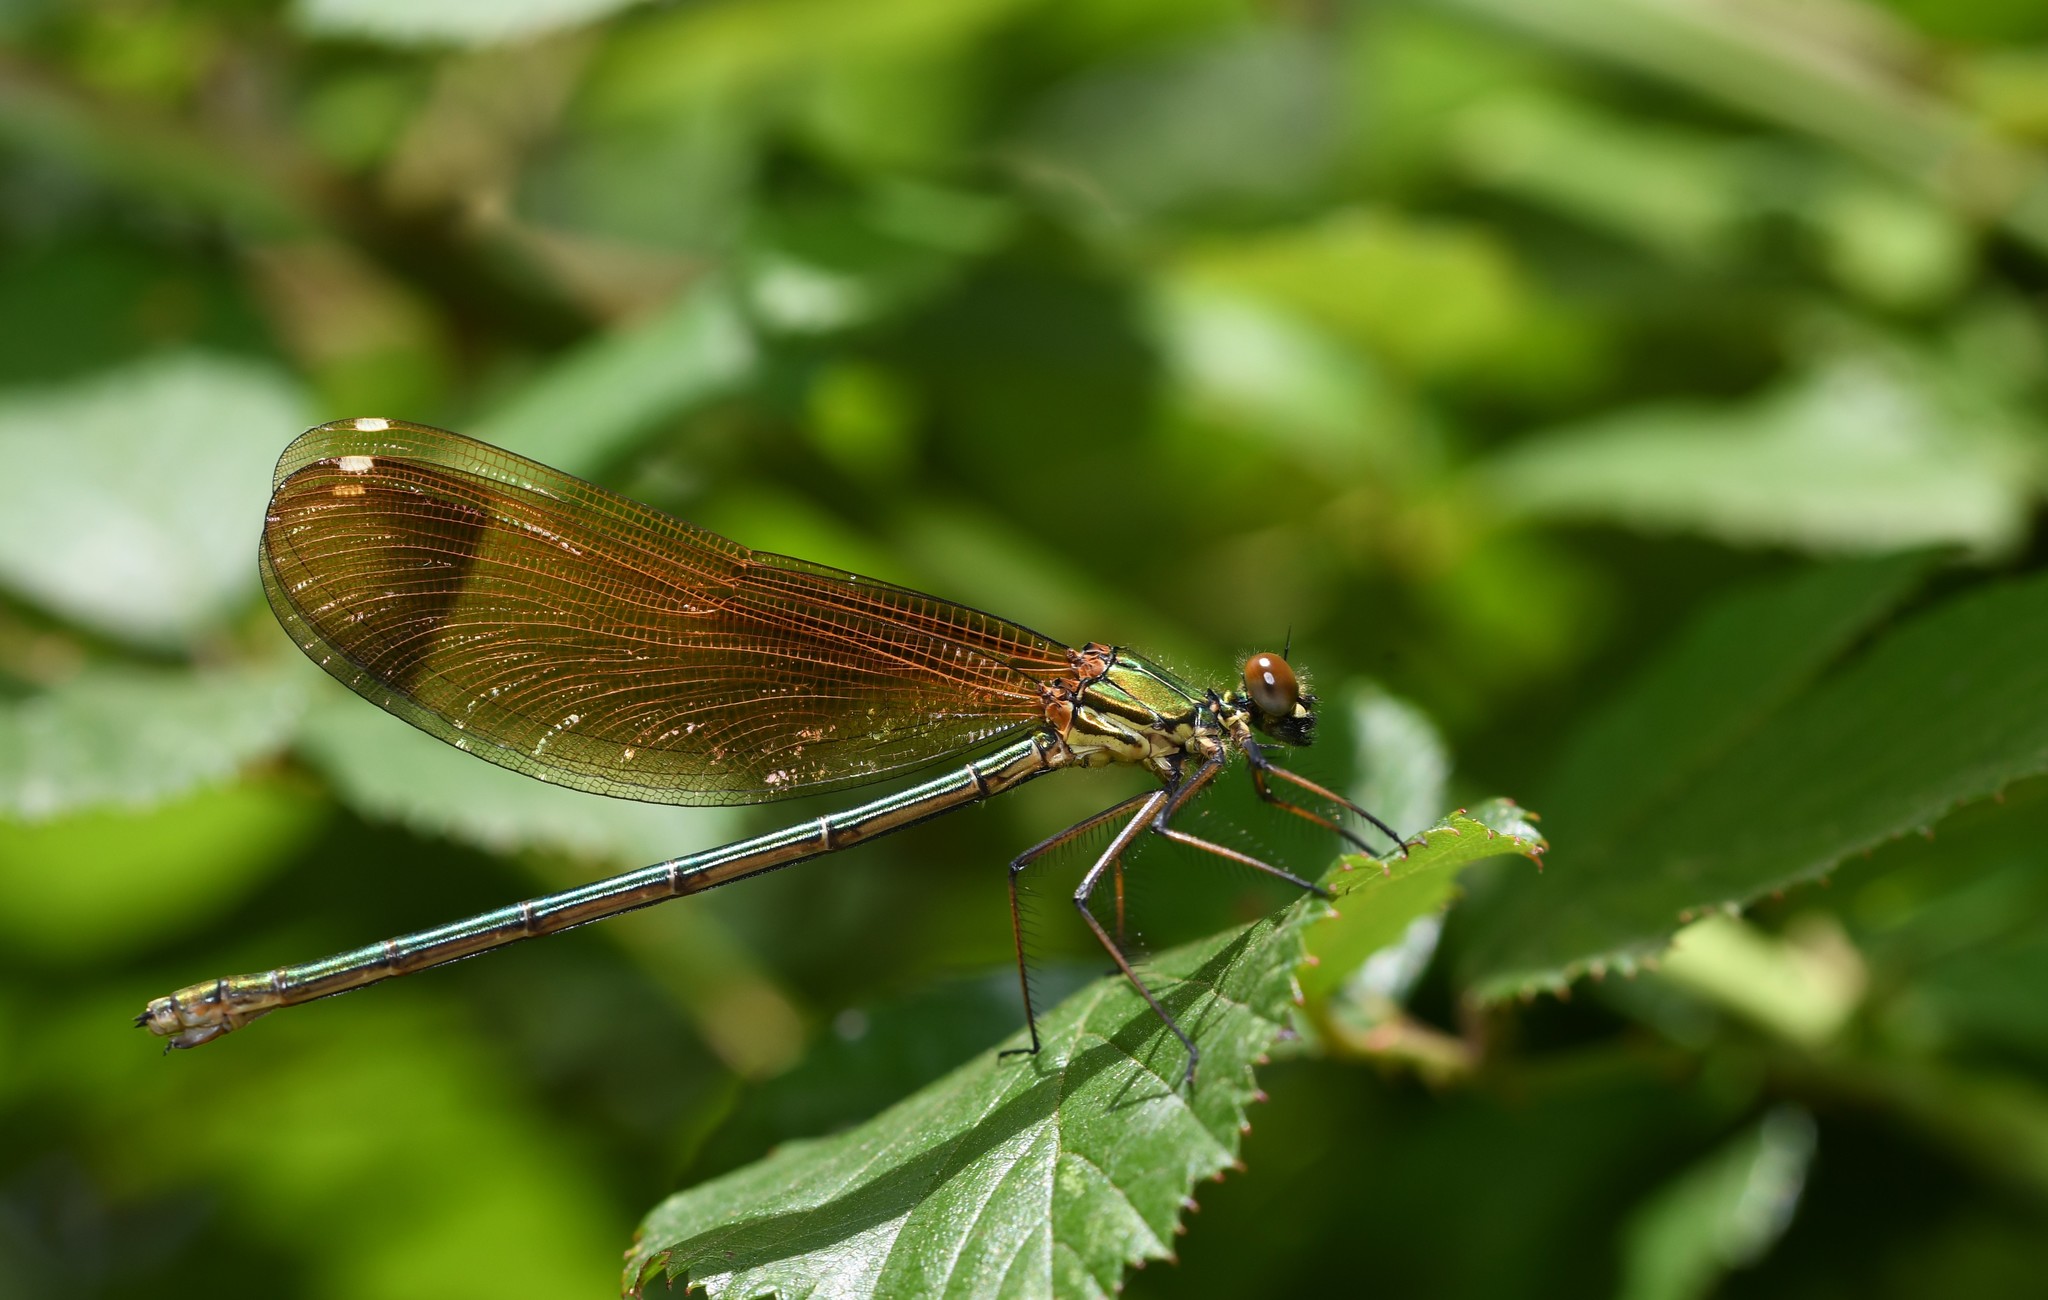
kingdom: Animalia
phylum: Arthropoda
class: Insecta
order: Odonata
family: Calopterygidae
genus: Calopteryx
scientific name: Calopteryx haemorrhoidalis
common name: Copper demoiselle
